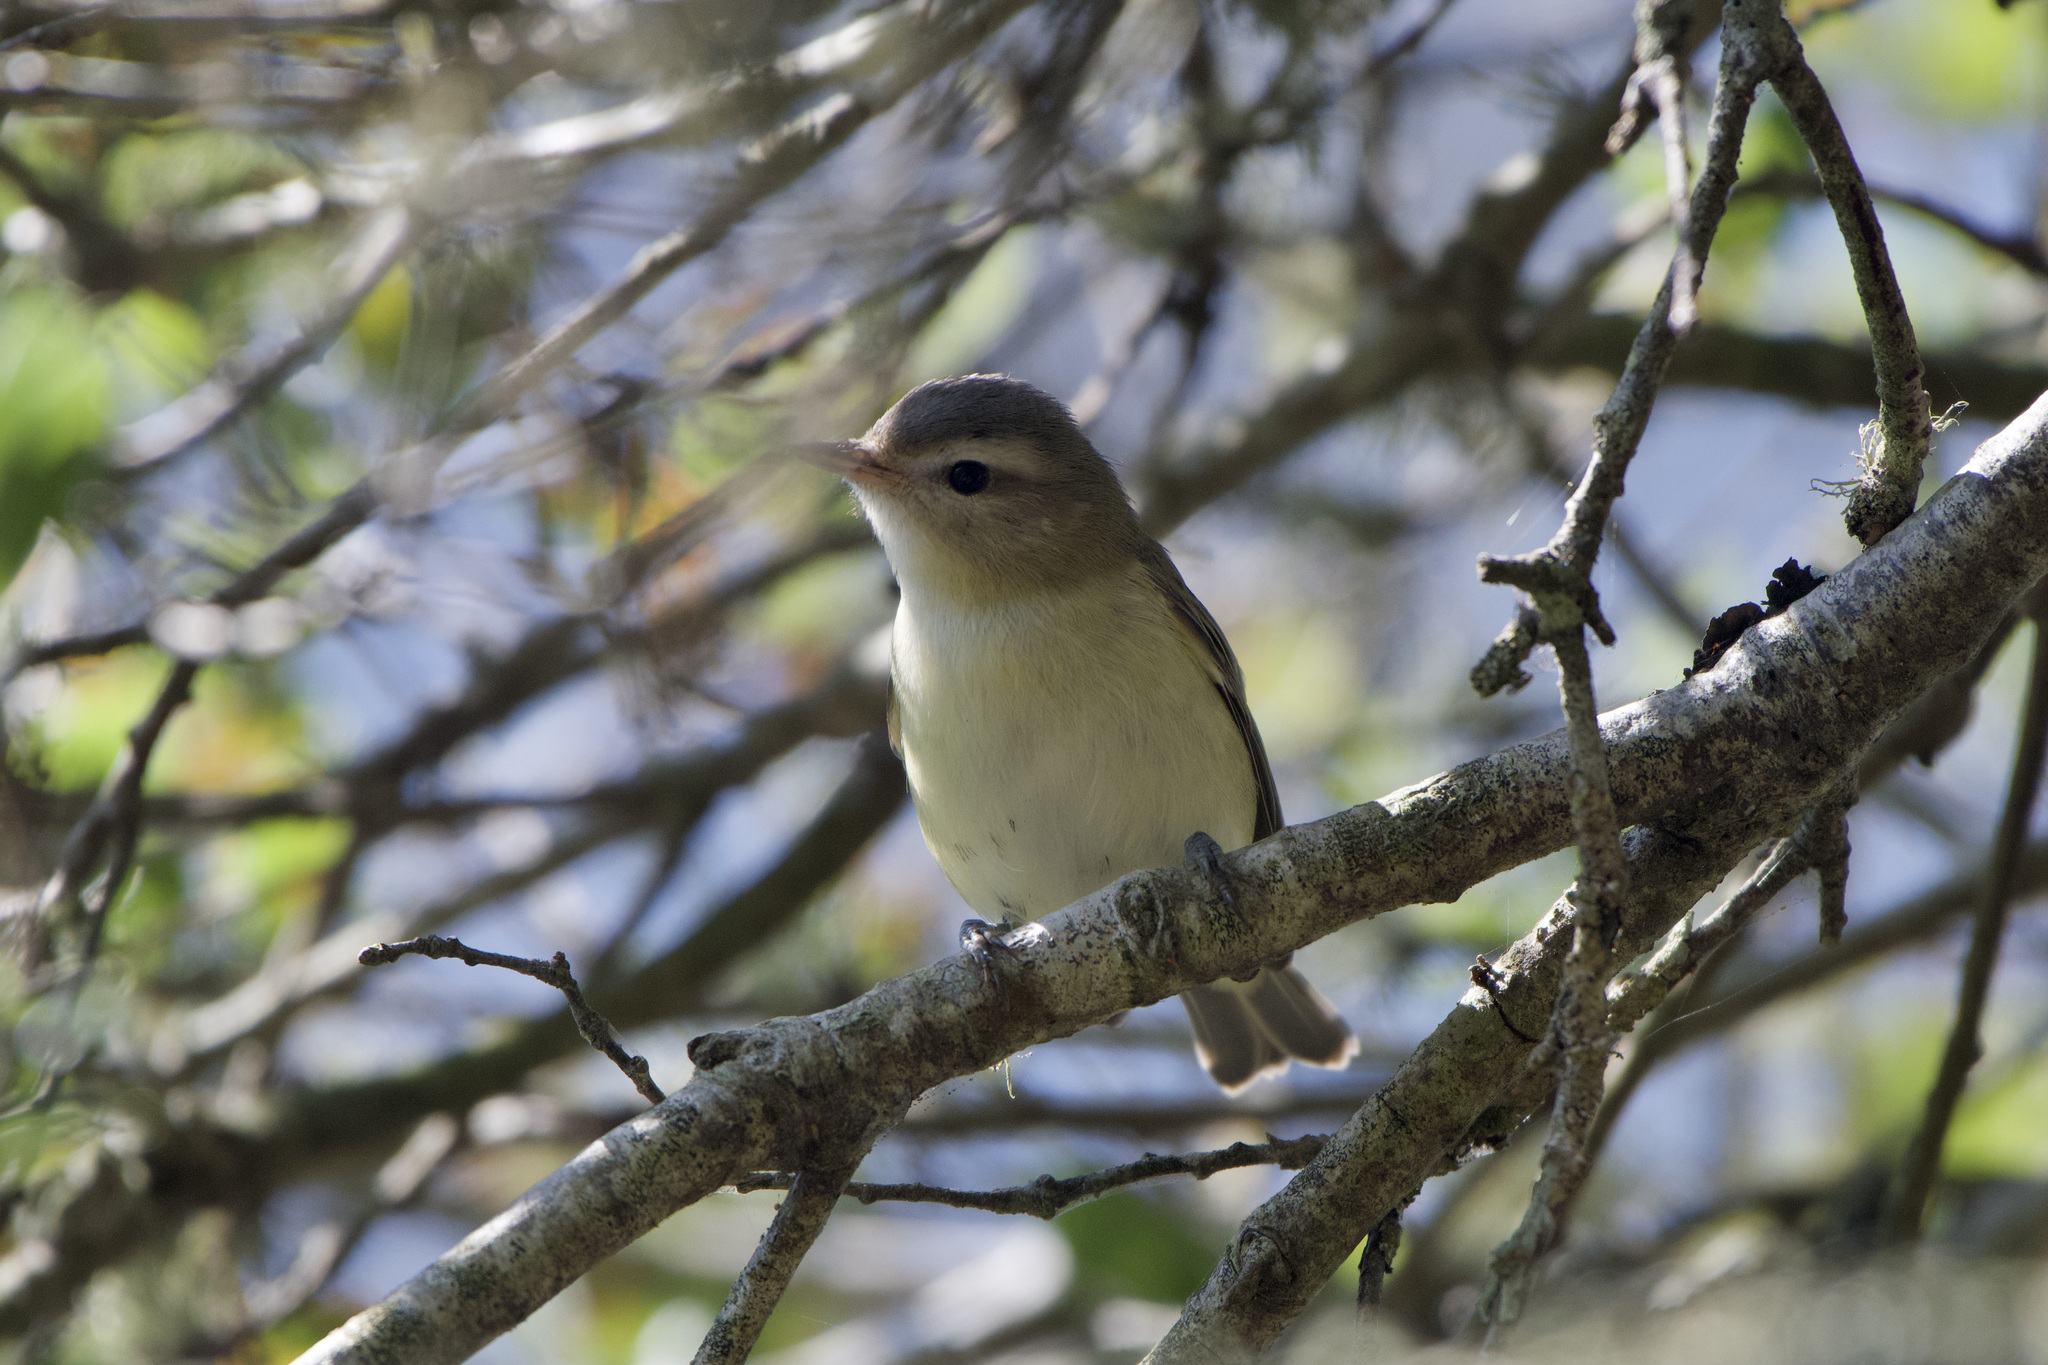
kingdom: Animalia
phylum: Chordata
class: Aves
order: Passeriformes
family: Vireonidae
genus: Vireo
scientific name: Vireo gilvus
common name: Warbling vireo
